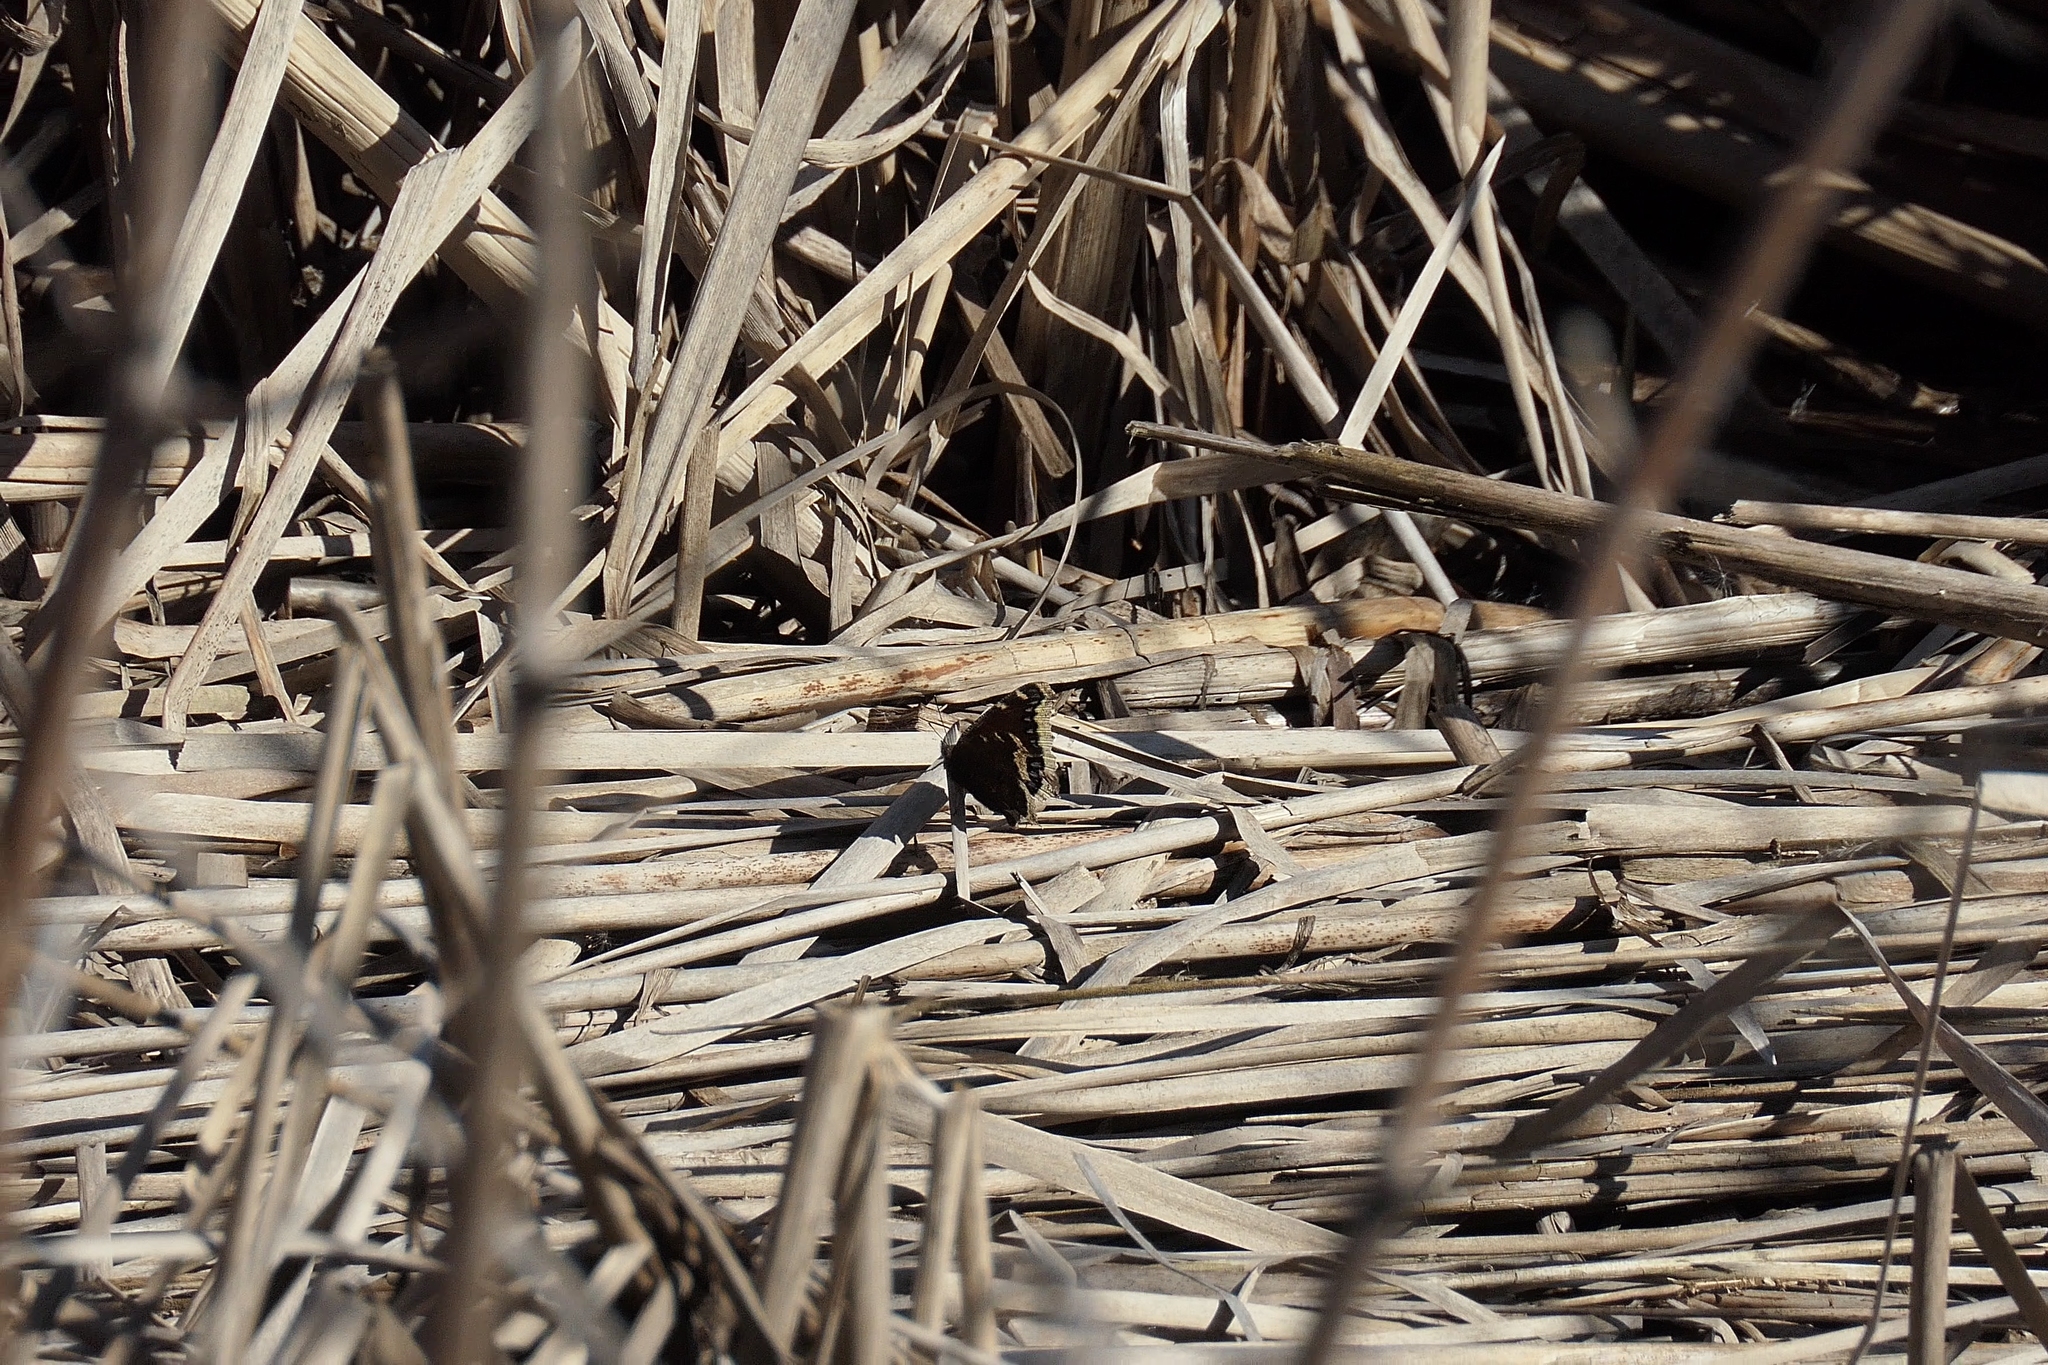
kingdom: Animalia
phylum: Arthropoda
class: Insecta
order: Lepidoptera
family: Nymphalidae
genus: Nymphalis
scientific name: Nymphalis antiopa
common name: Camberwell beauty
